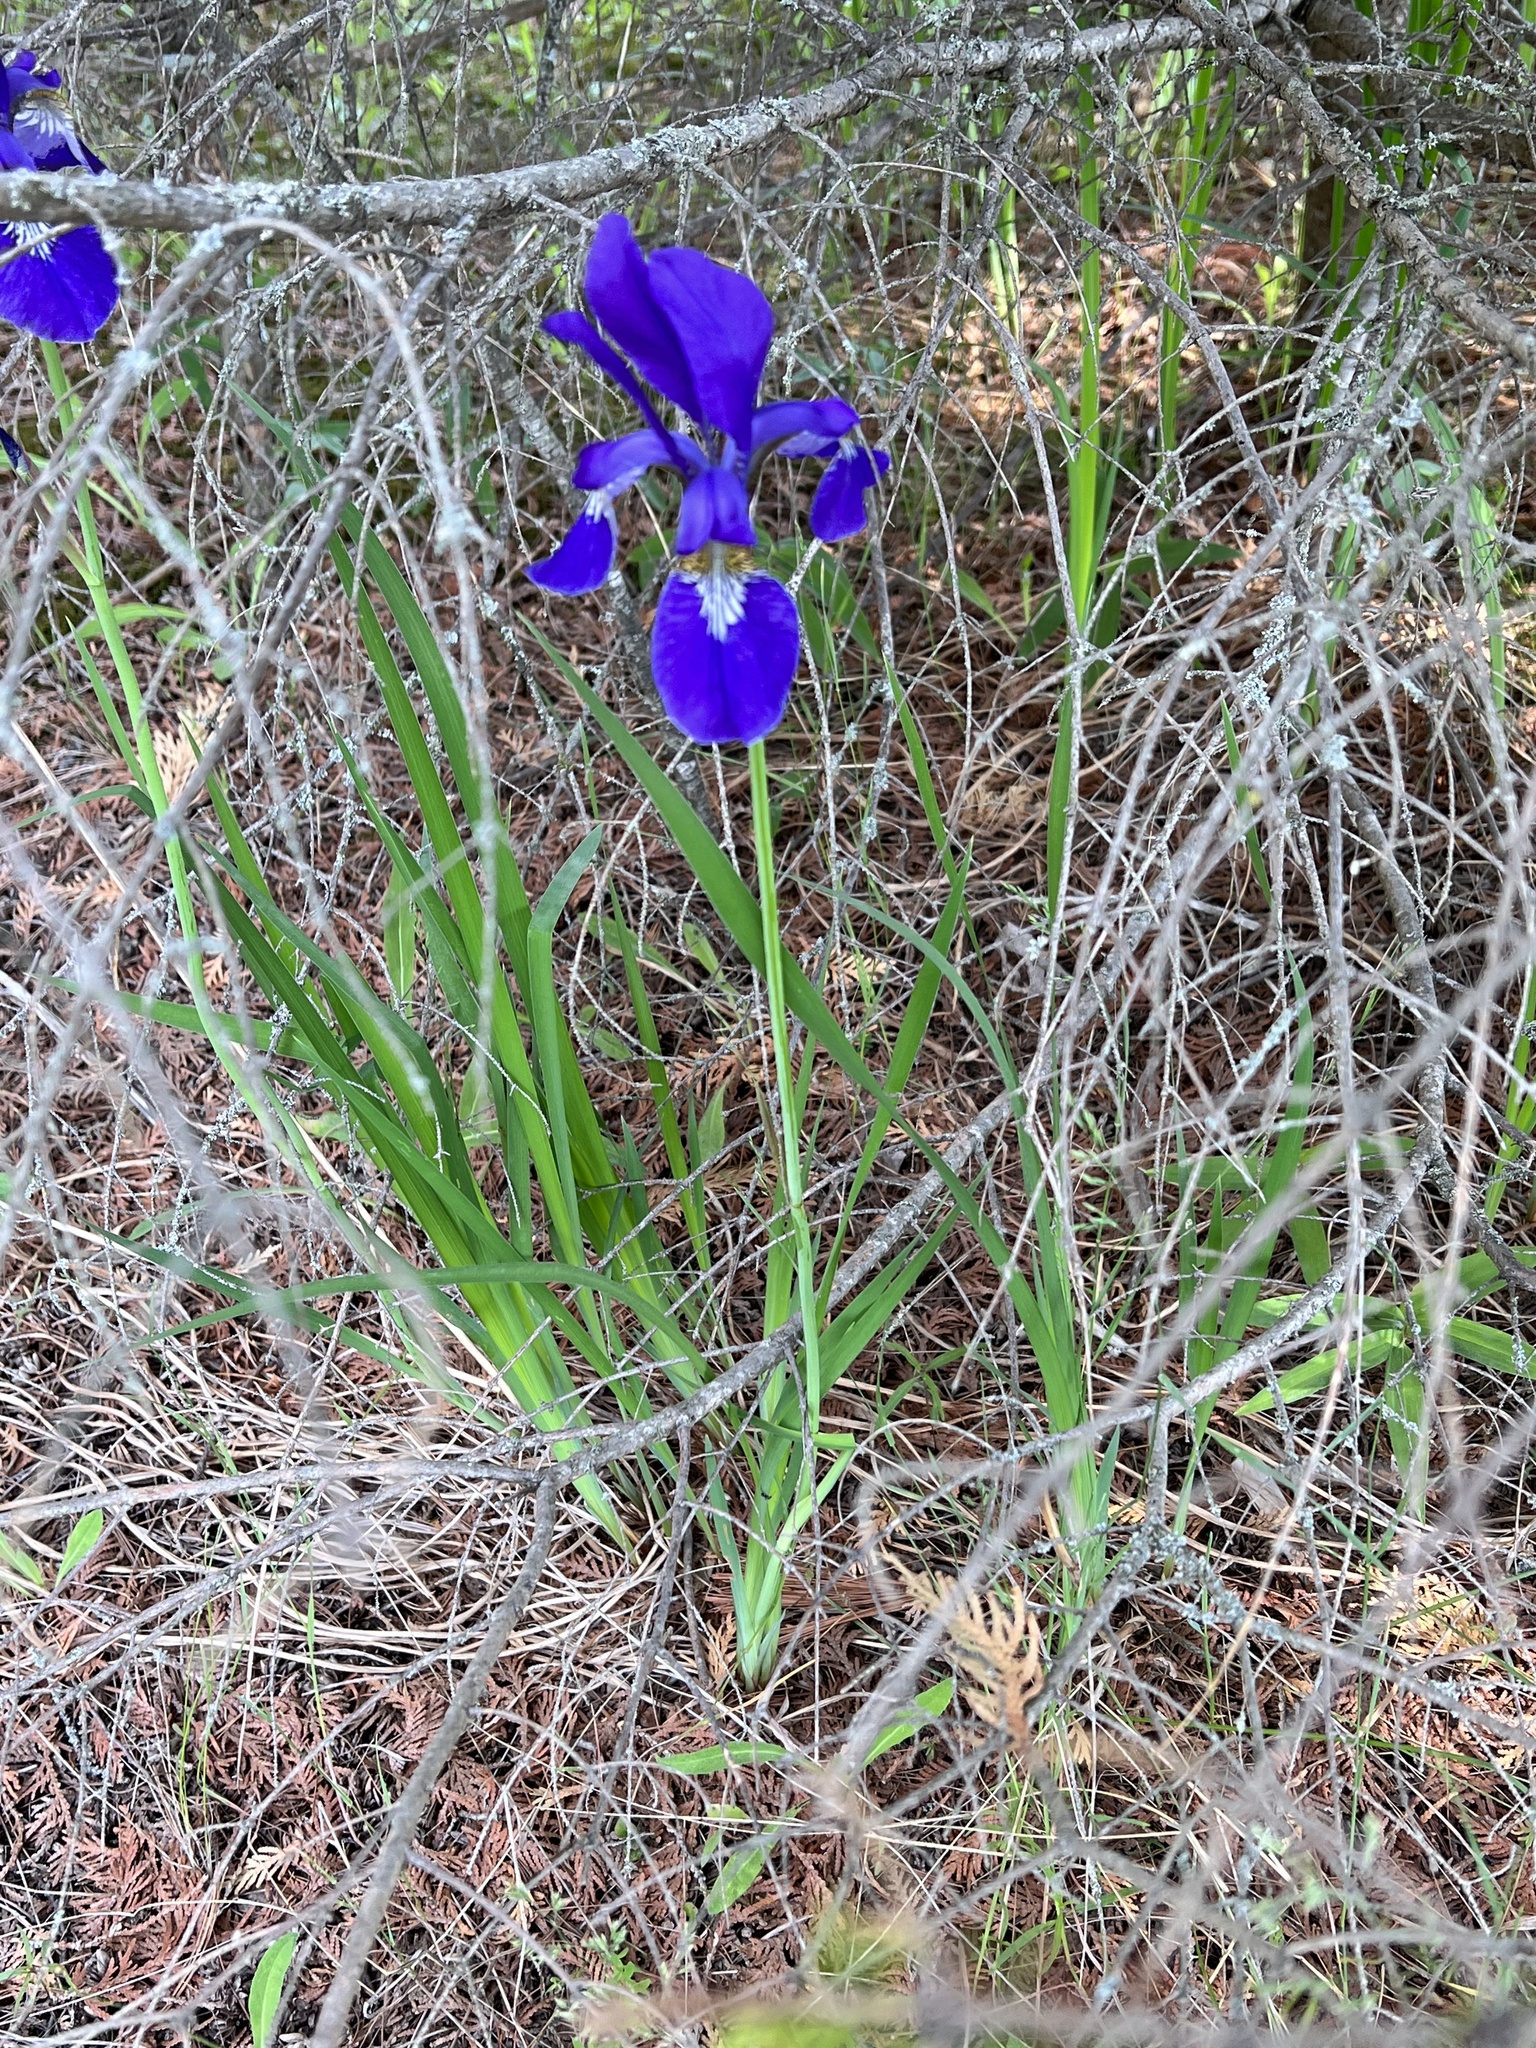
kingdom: Plantae
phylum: Tracheophyta
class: Liliopsida
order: Asparagales
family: Iridaceae
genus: Iris
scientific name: Iris sanguinea
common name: Blood iris
